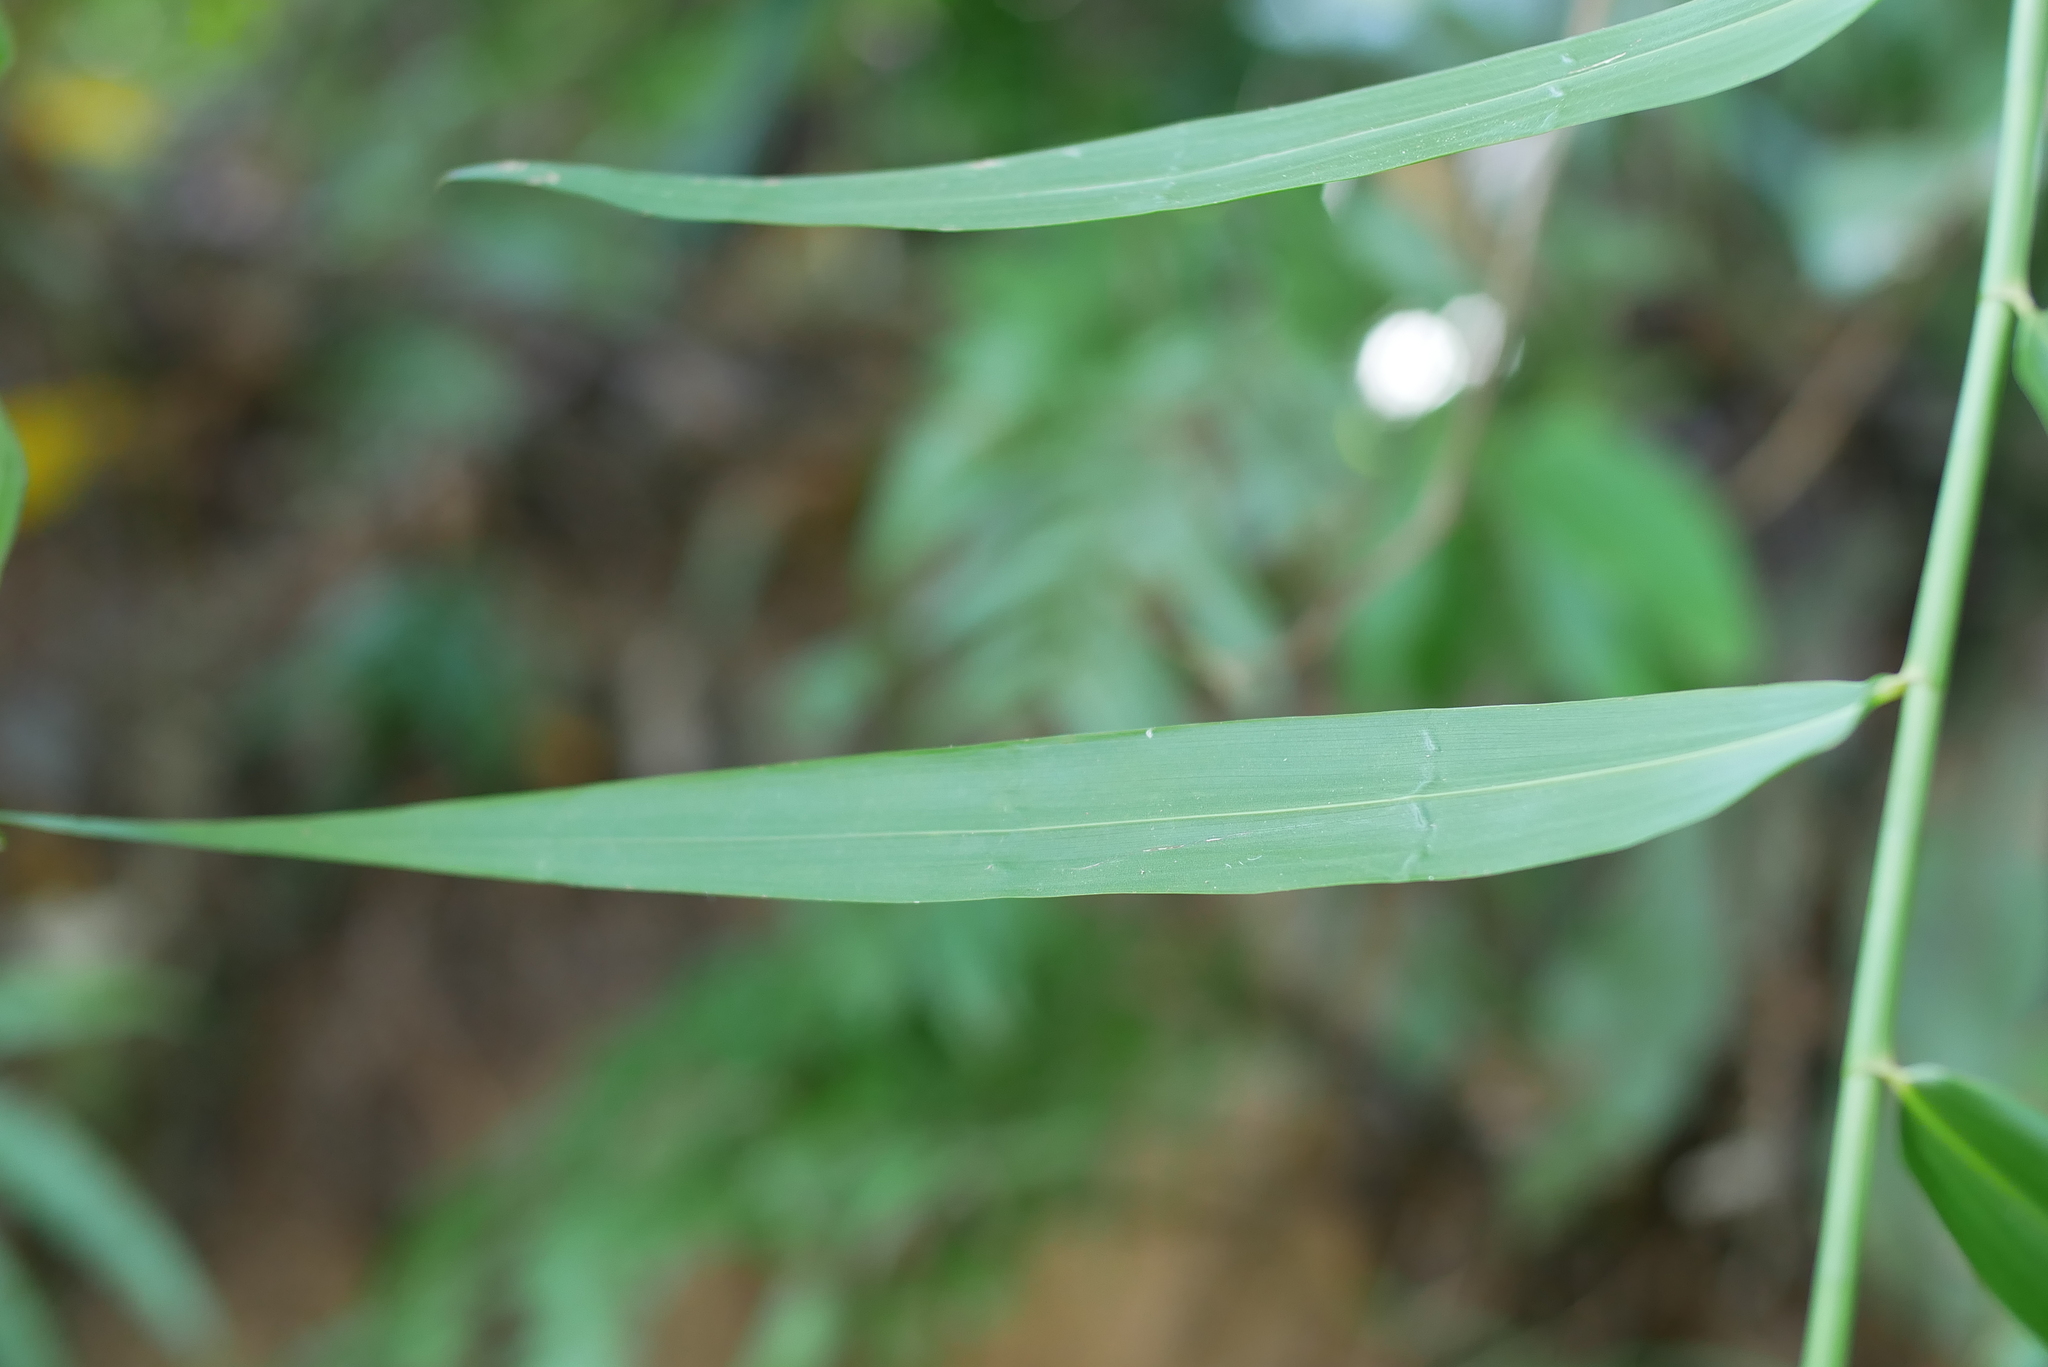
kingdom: Plantae
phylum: Tracheophyta
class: Liliopsida
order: Poales
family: Flagellariaceae
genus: Flagellaria
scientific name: Flagellaria indica
